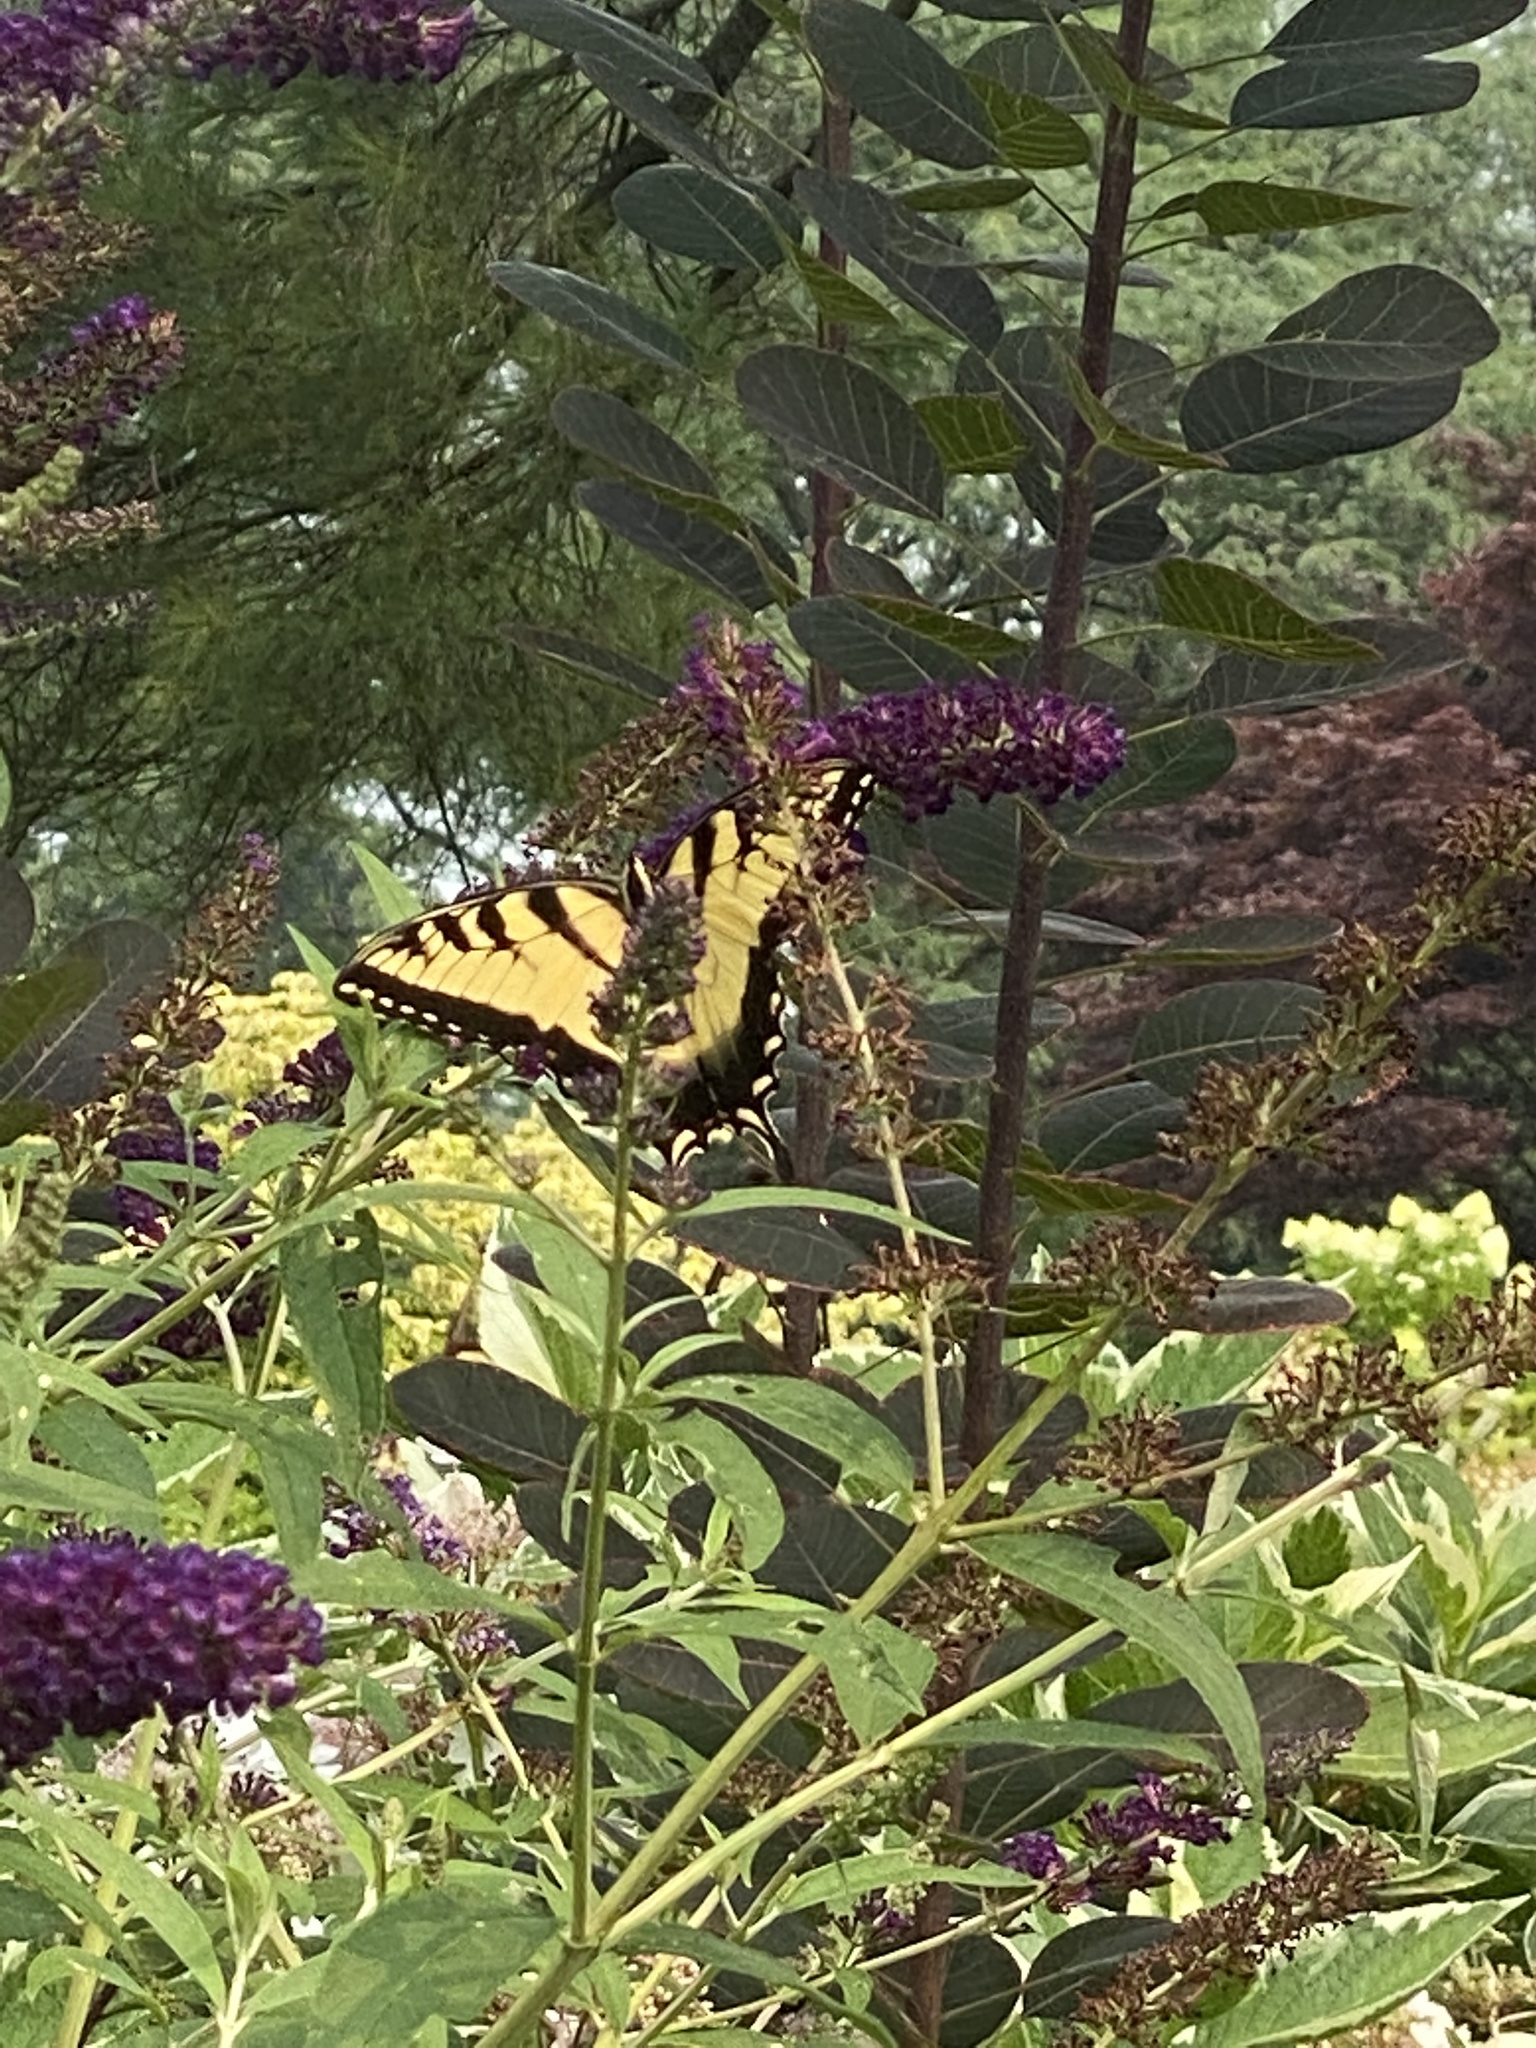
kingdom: Animalia
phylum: Arthropoda
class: Insecta
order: Lepidoptera
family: Papilionidae
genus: Papilio
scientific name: Papilio glaucus
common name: Tiger swallowtail
